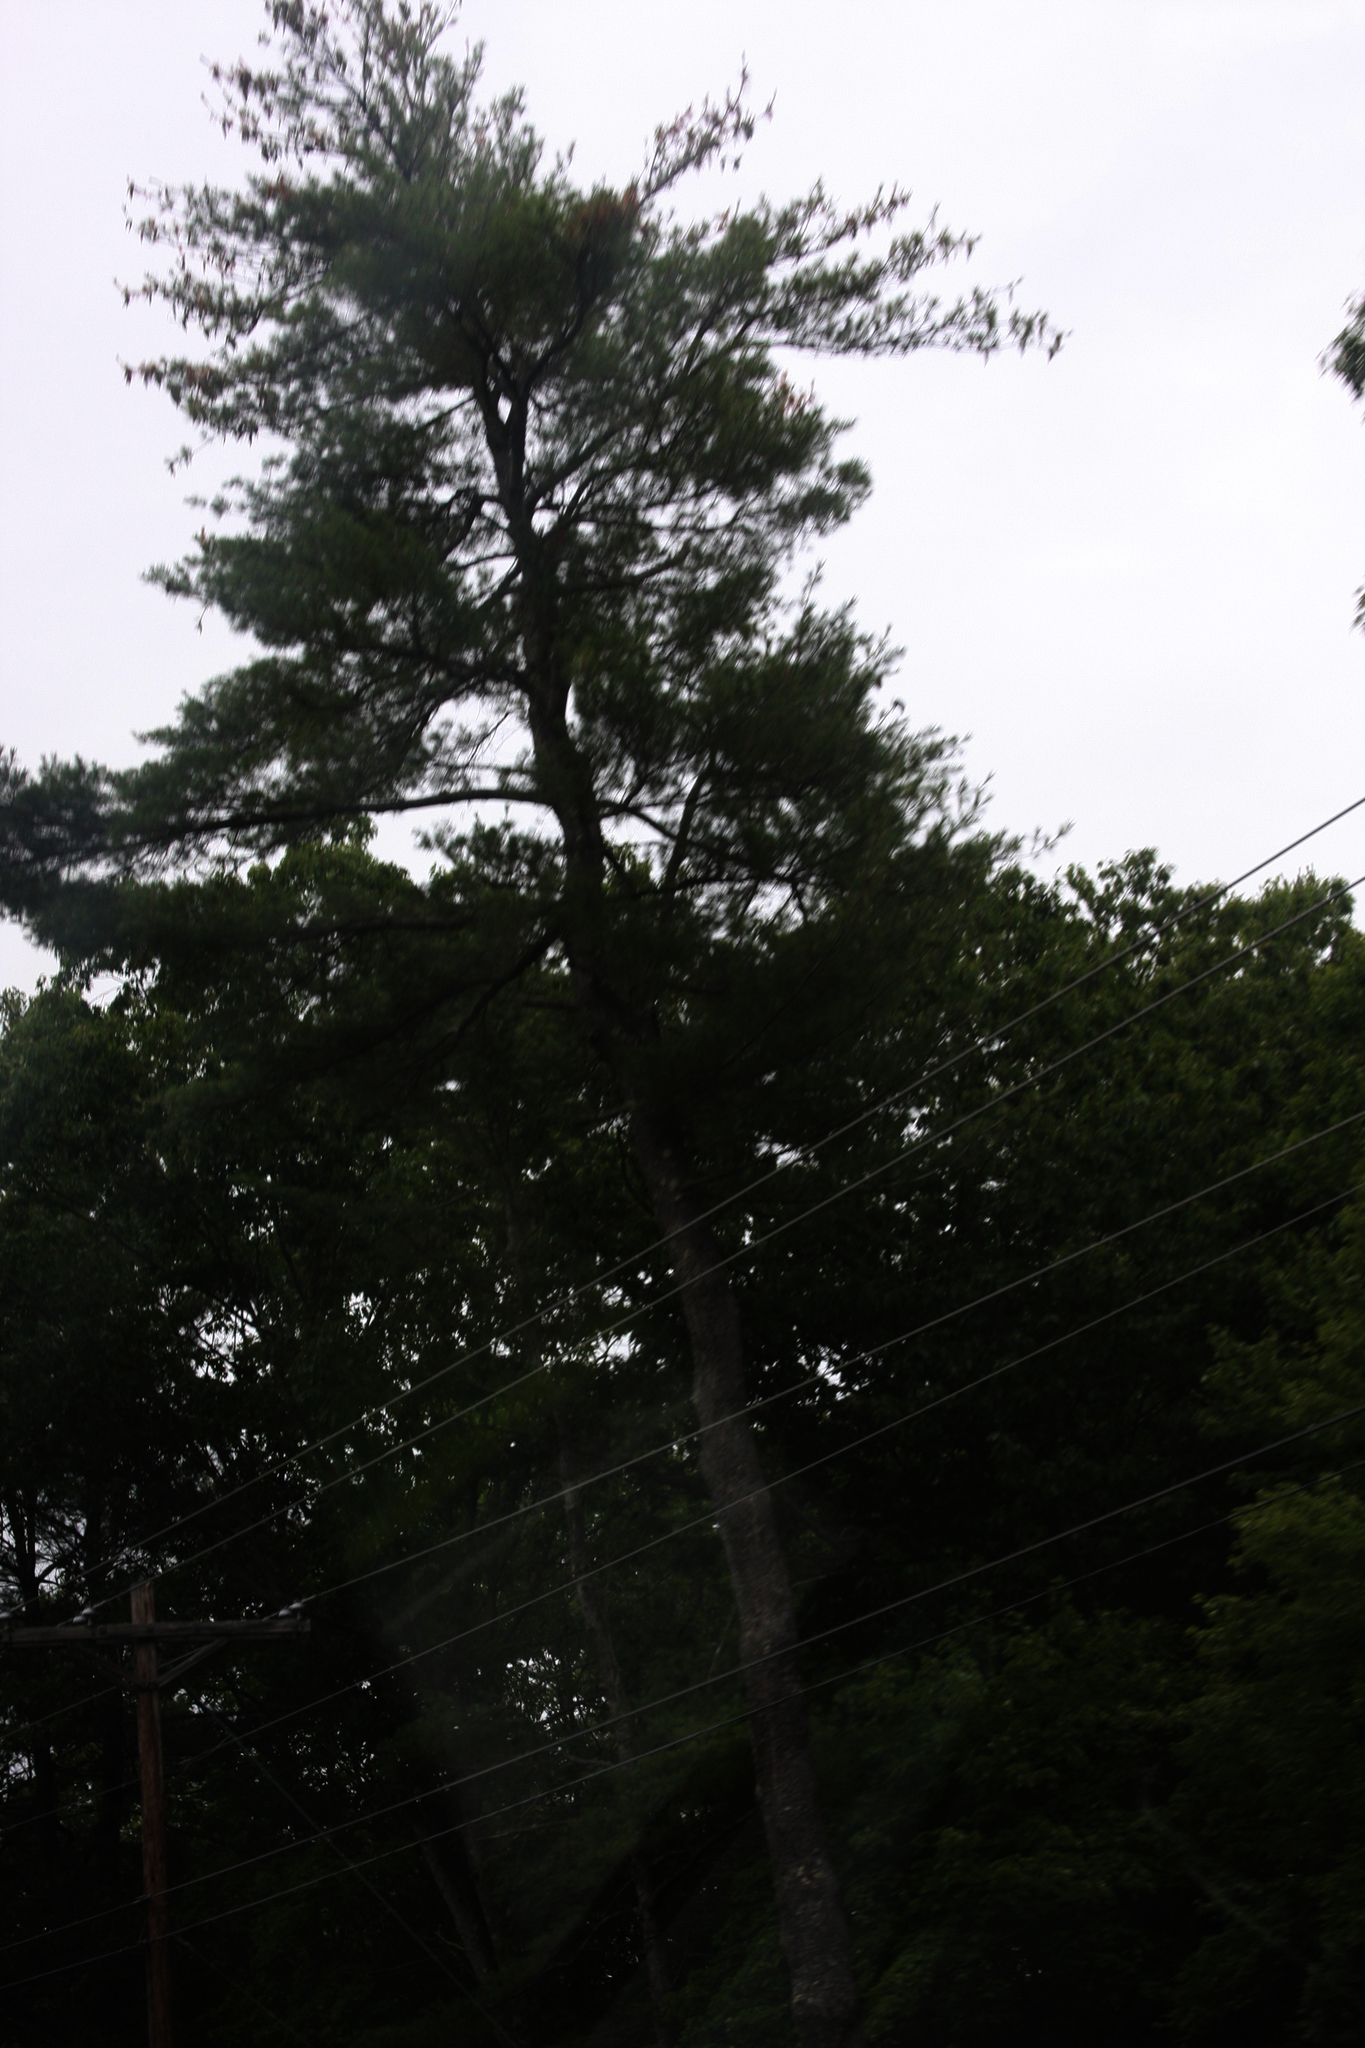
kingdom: Plantae
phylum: Tracheophyta
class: Pinopsida
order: Pinales
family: Pinaceae
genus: Pinus
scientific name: Pinus strobus
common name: Weymouth pine
